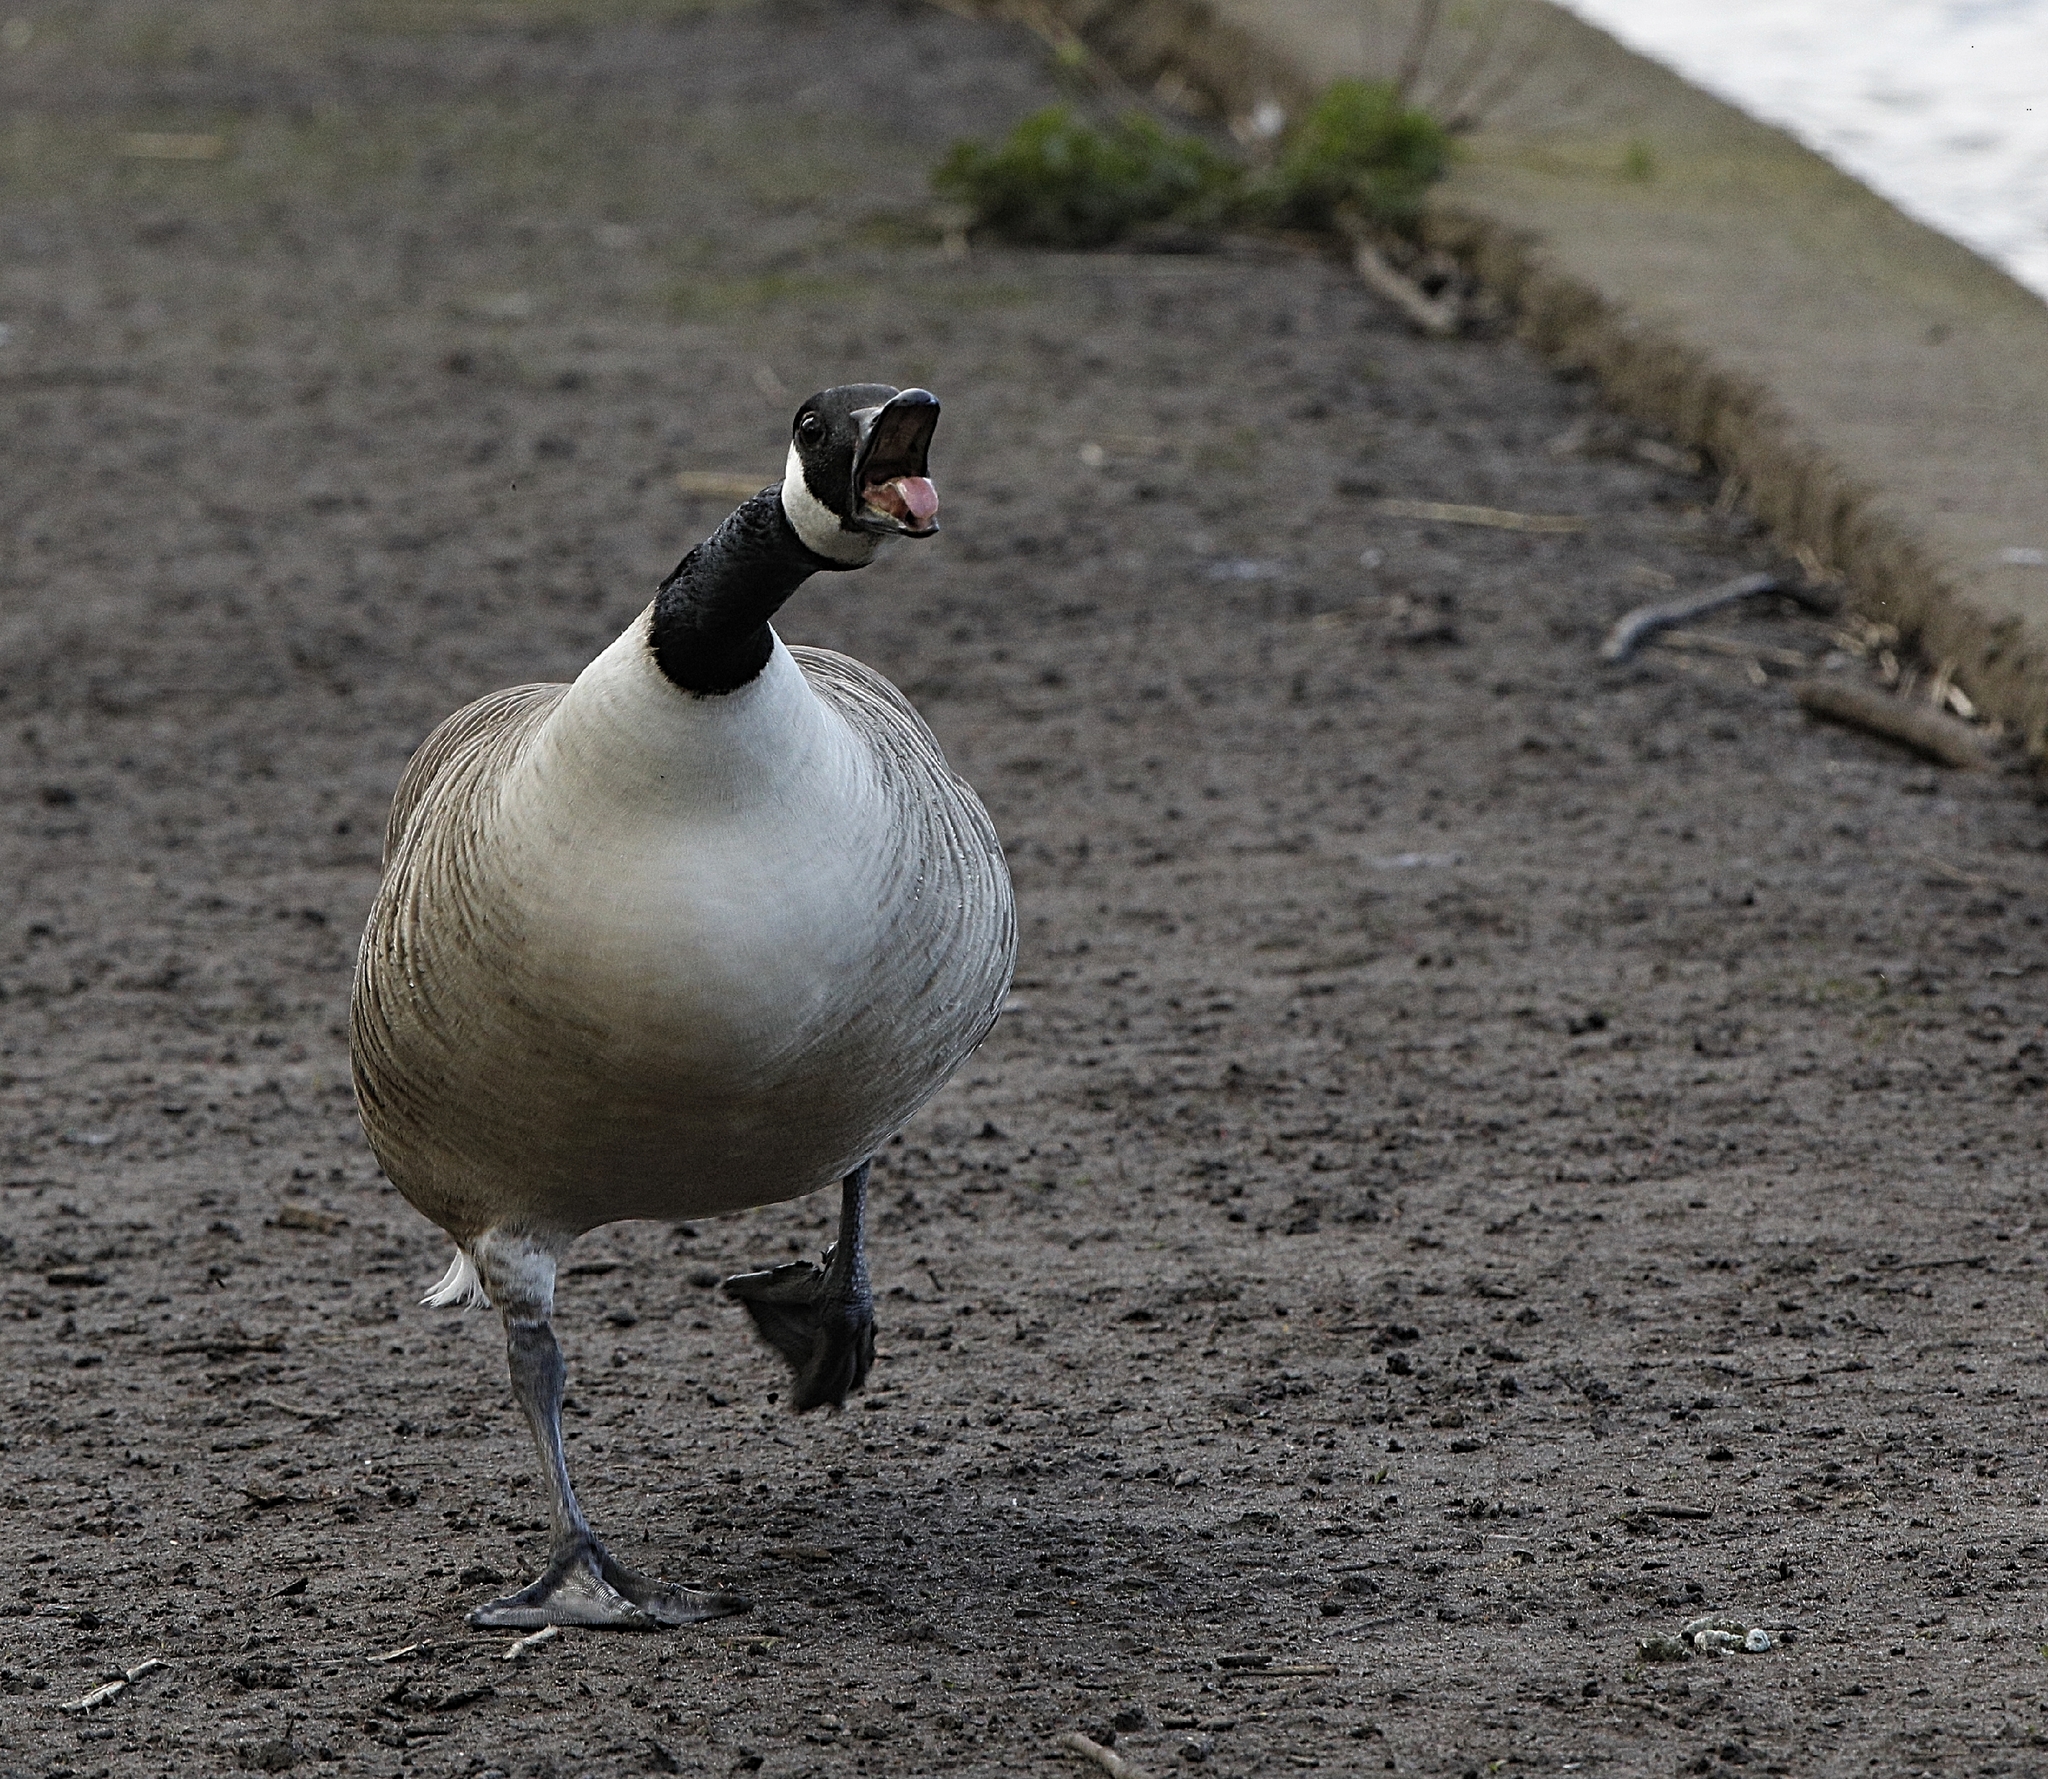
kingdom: Animalia
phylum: Chordata
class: Aves
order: Anseriformes
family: Anatidae
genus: Branta
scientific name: Branta canadensis
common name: Canada goose
